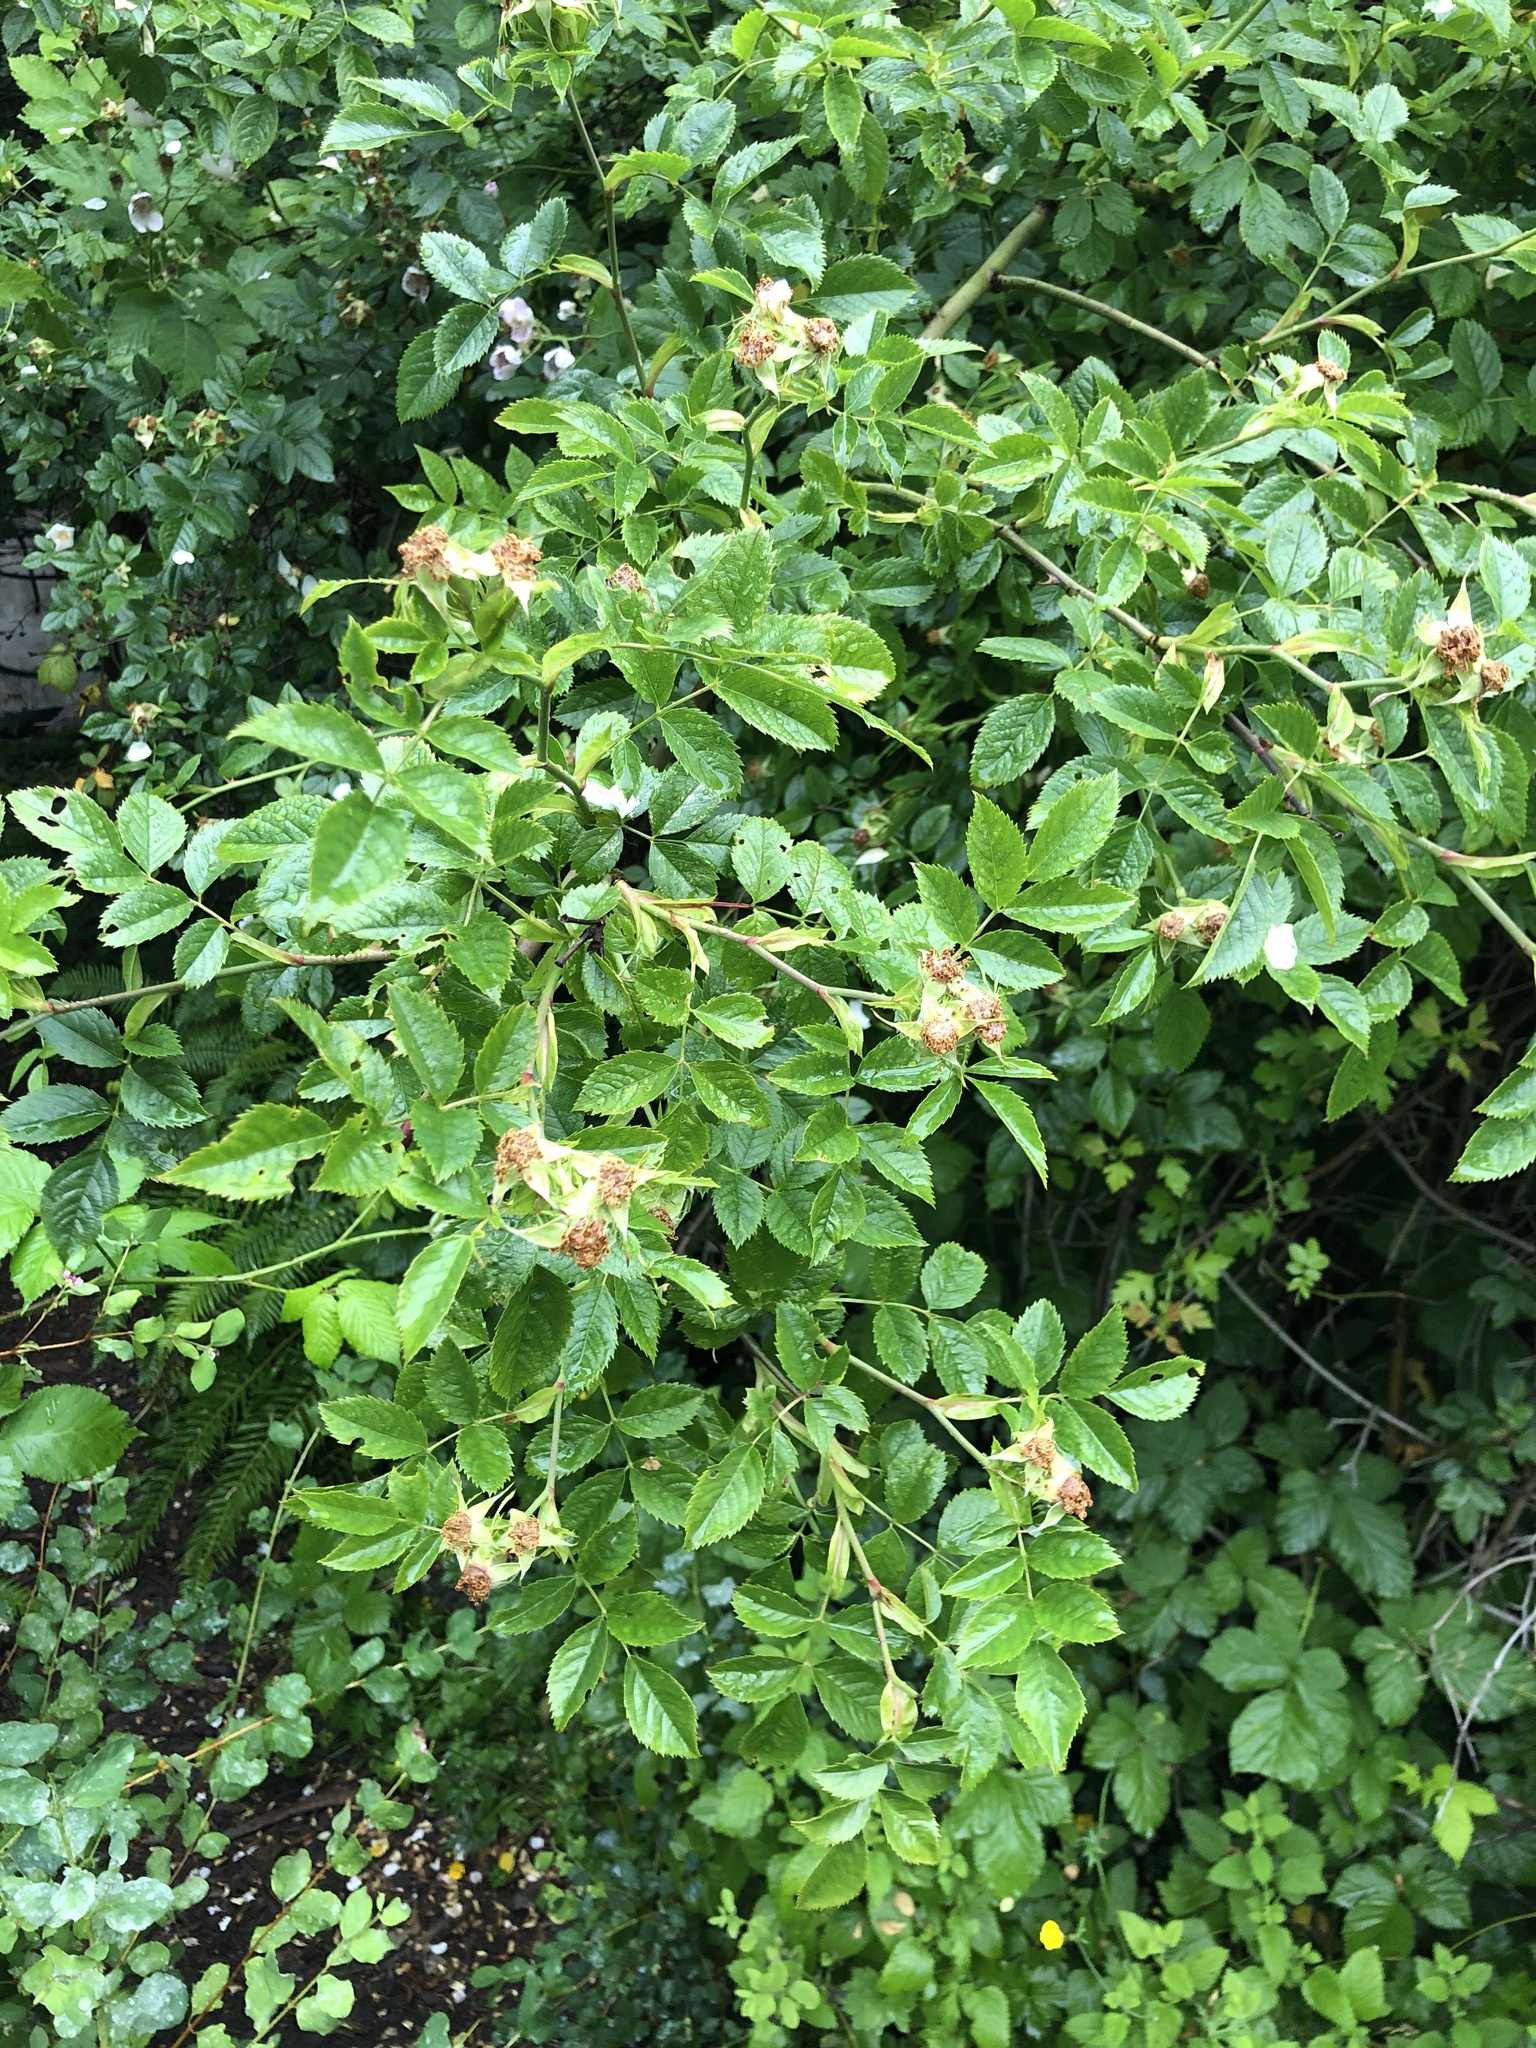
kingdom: Plantae
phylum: Tracheophyta
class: Magnoliopsida
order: Rosales
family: Rosaceae
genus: Rosa
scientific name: Rosa nutkana
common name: Nootka rose
